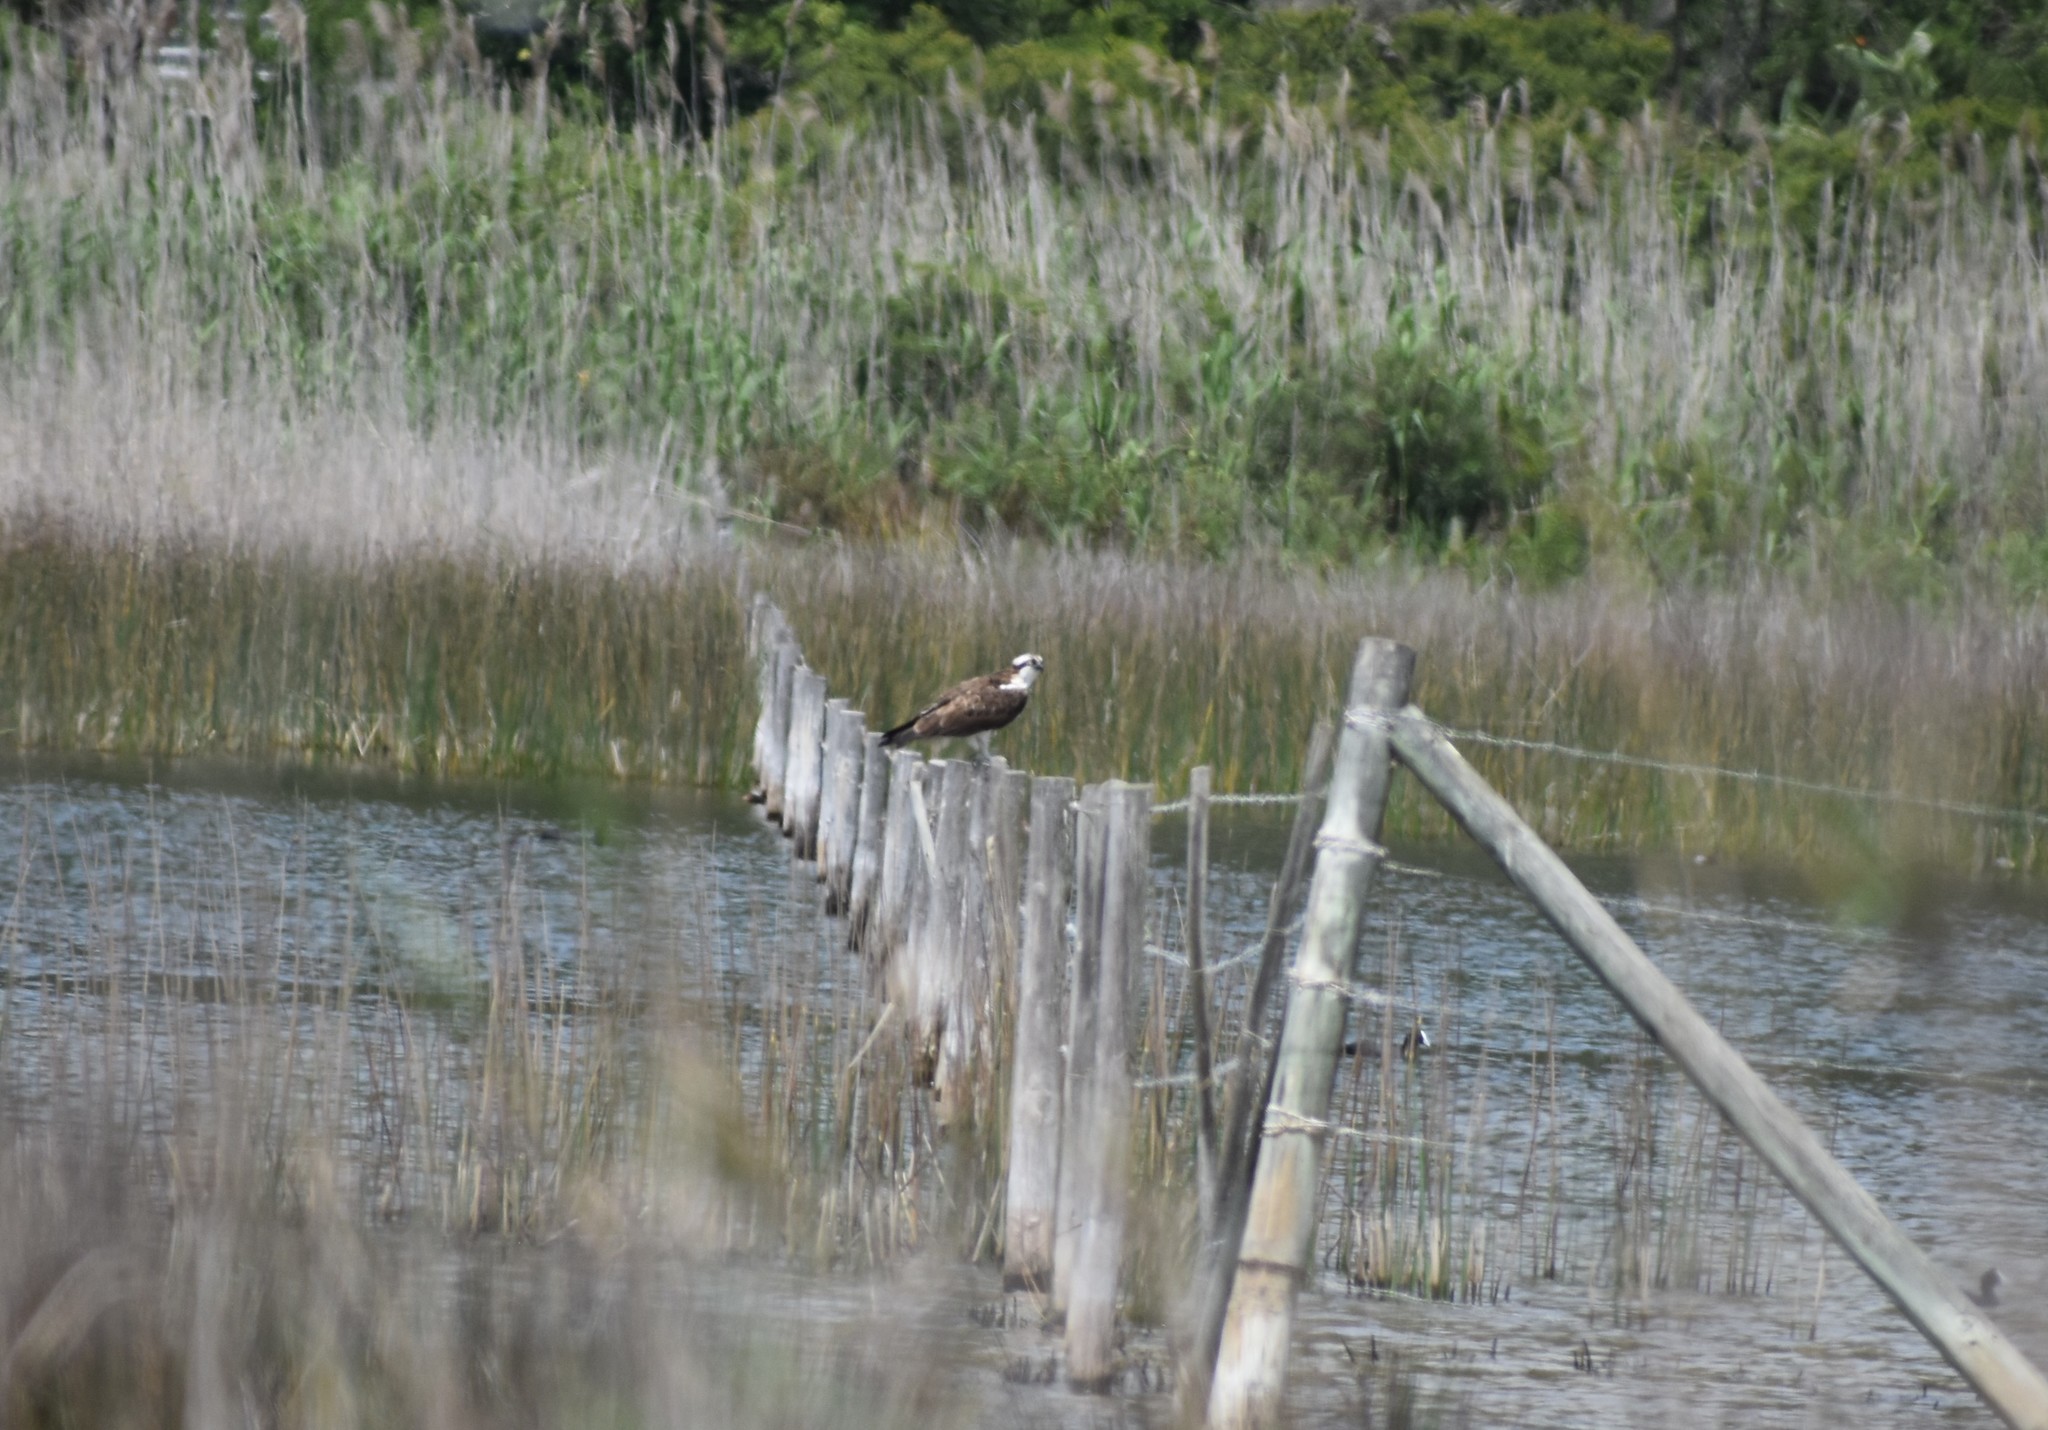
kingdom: Animalia
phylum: Chordata
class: Aves
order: Accipitriformes
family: Pandionidae
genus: Pandion
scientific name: Pandion haliaetus
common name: Osprey
